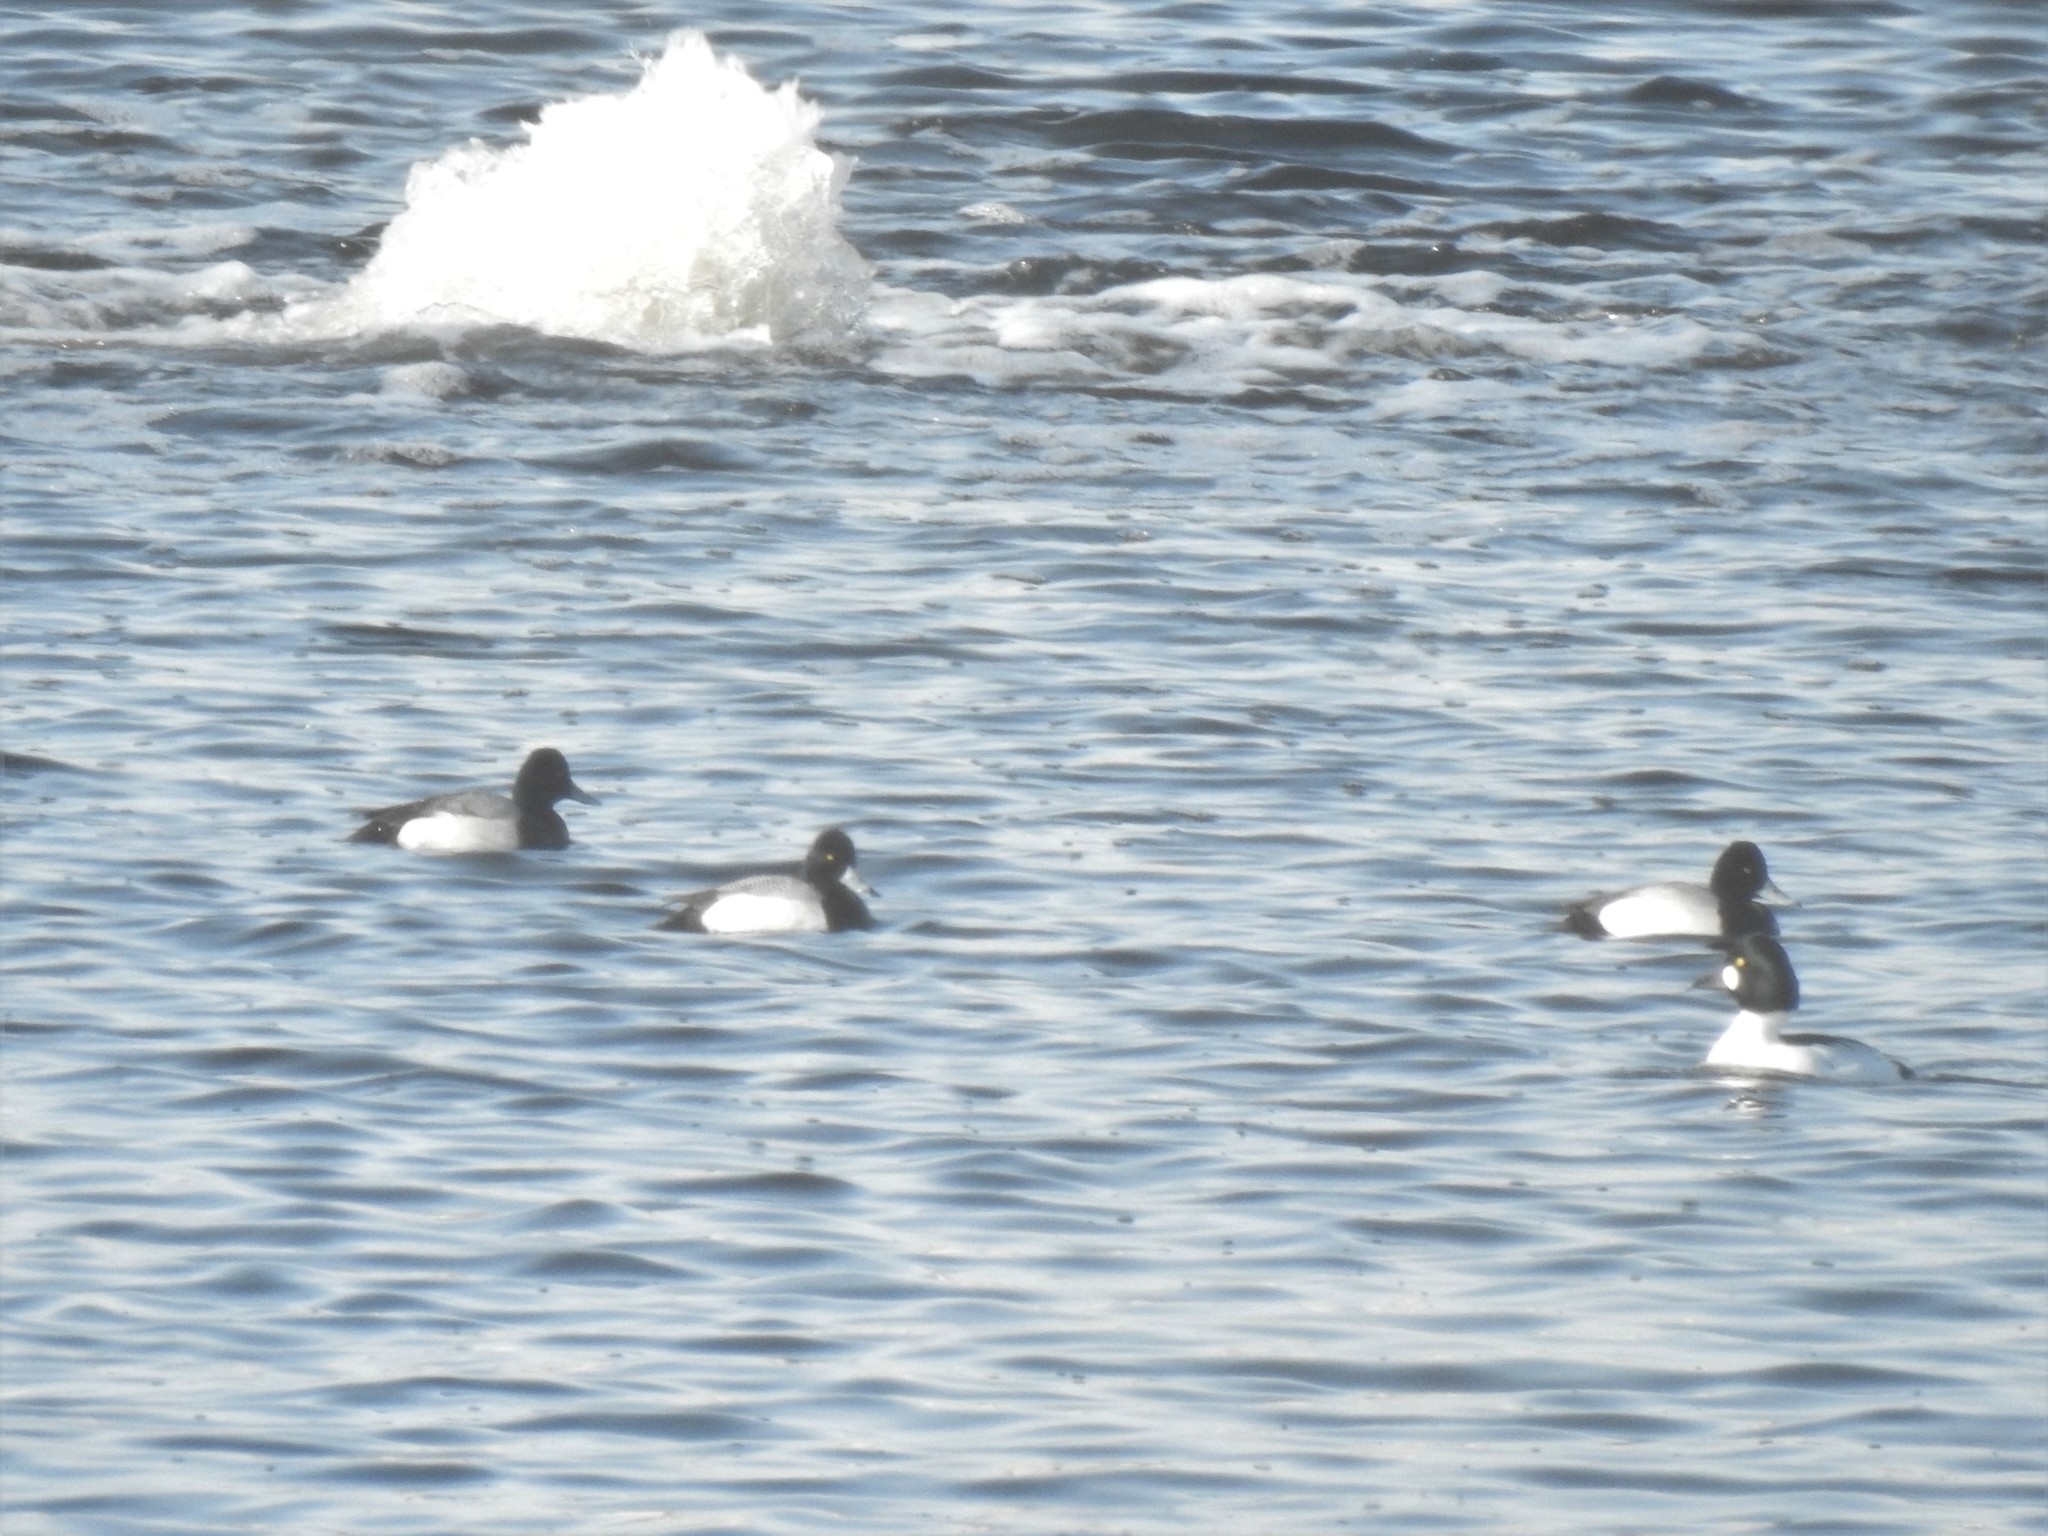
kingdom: Animalia
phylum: Chordata
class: Aves
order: Anseriformes
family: Anatidae
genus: Aythya
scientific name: Aythya affinis
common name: Lesser scaup
